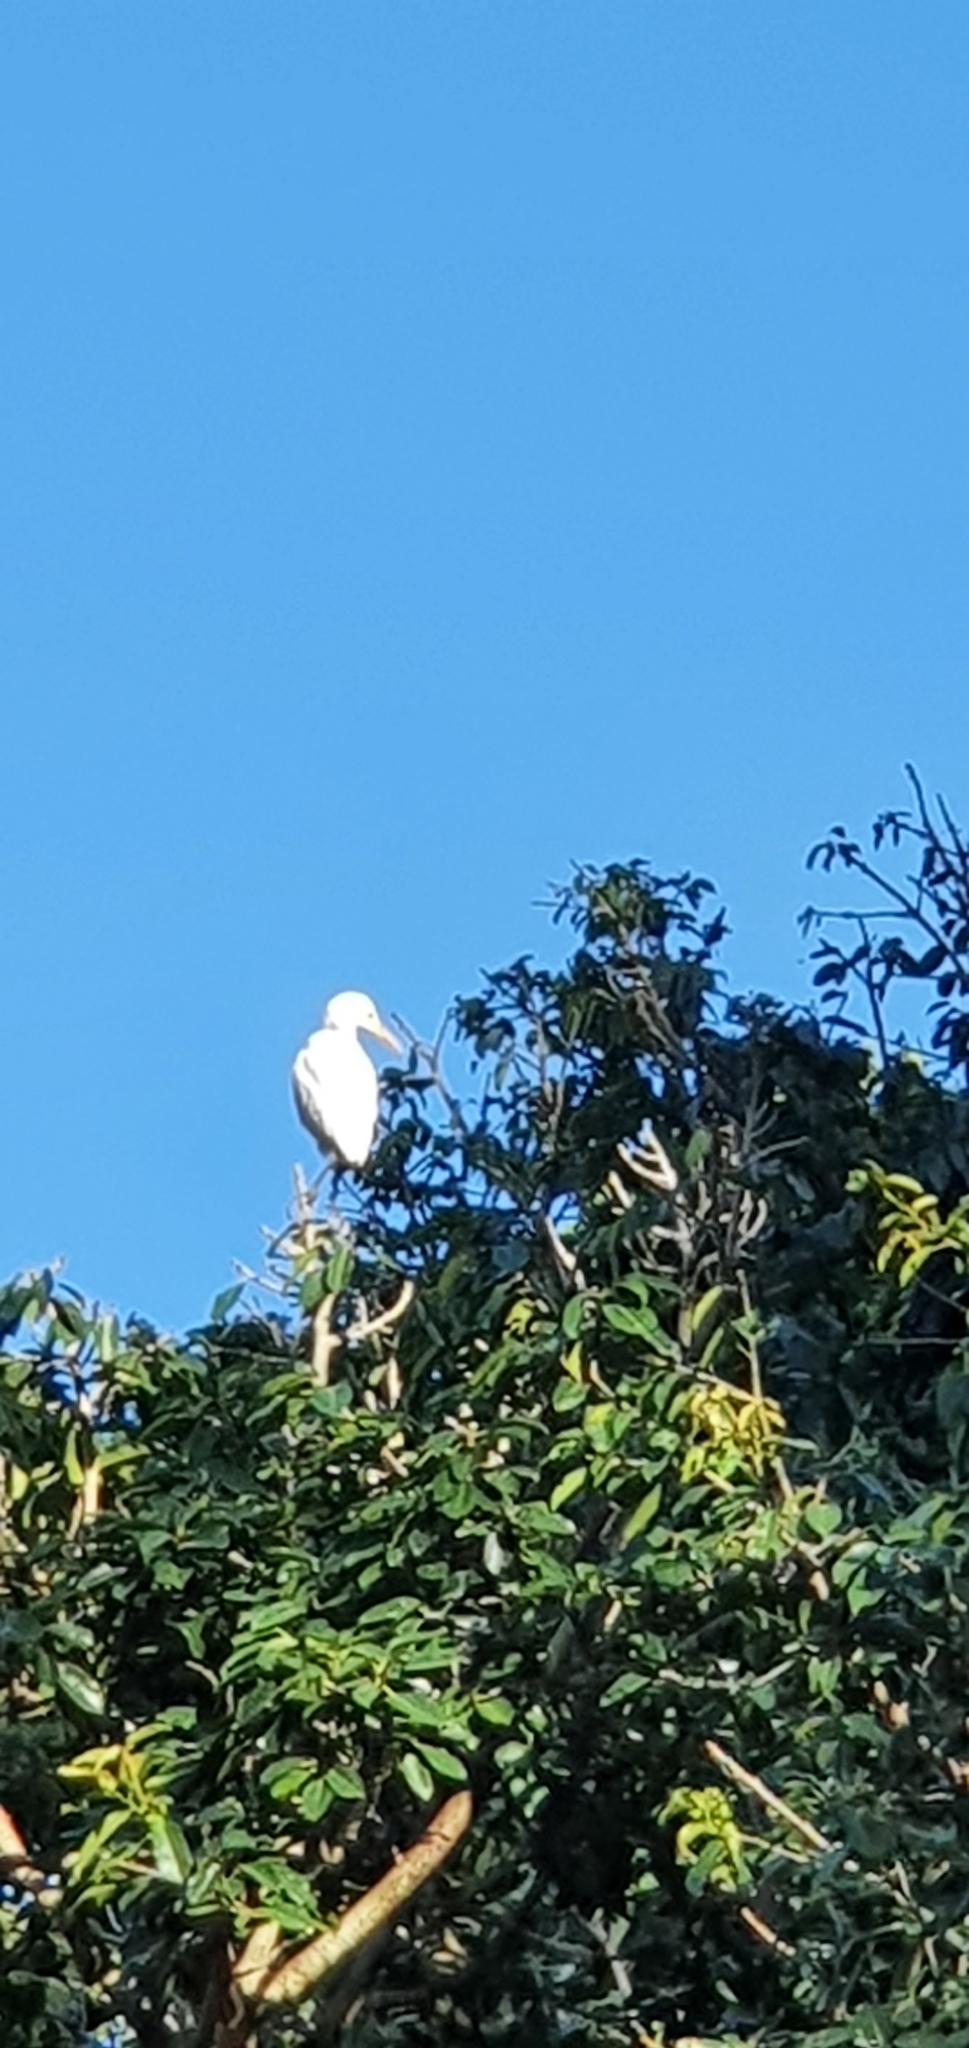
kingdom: Animalia
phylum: Chordata
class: Aves
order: Pelecaniformes
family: Ardeidae
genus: Bubulcus
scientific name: Bubulcus coromandus
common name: Eastern cattle egret
